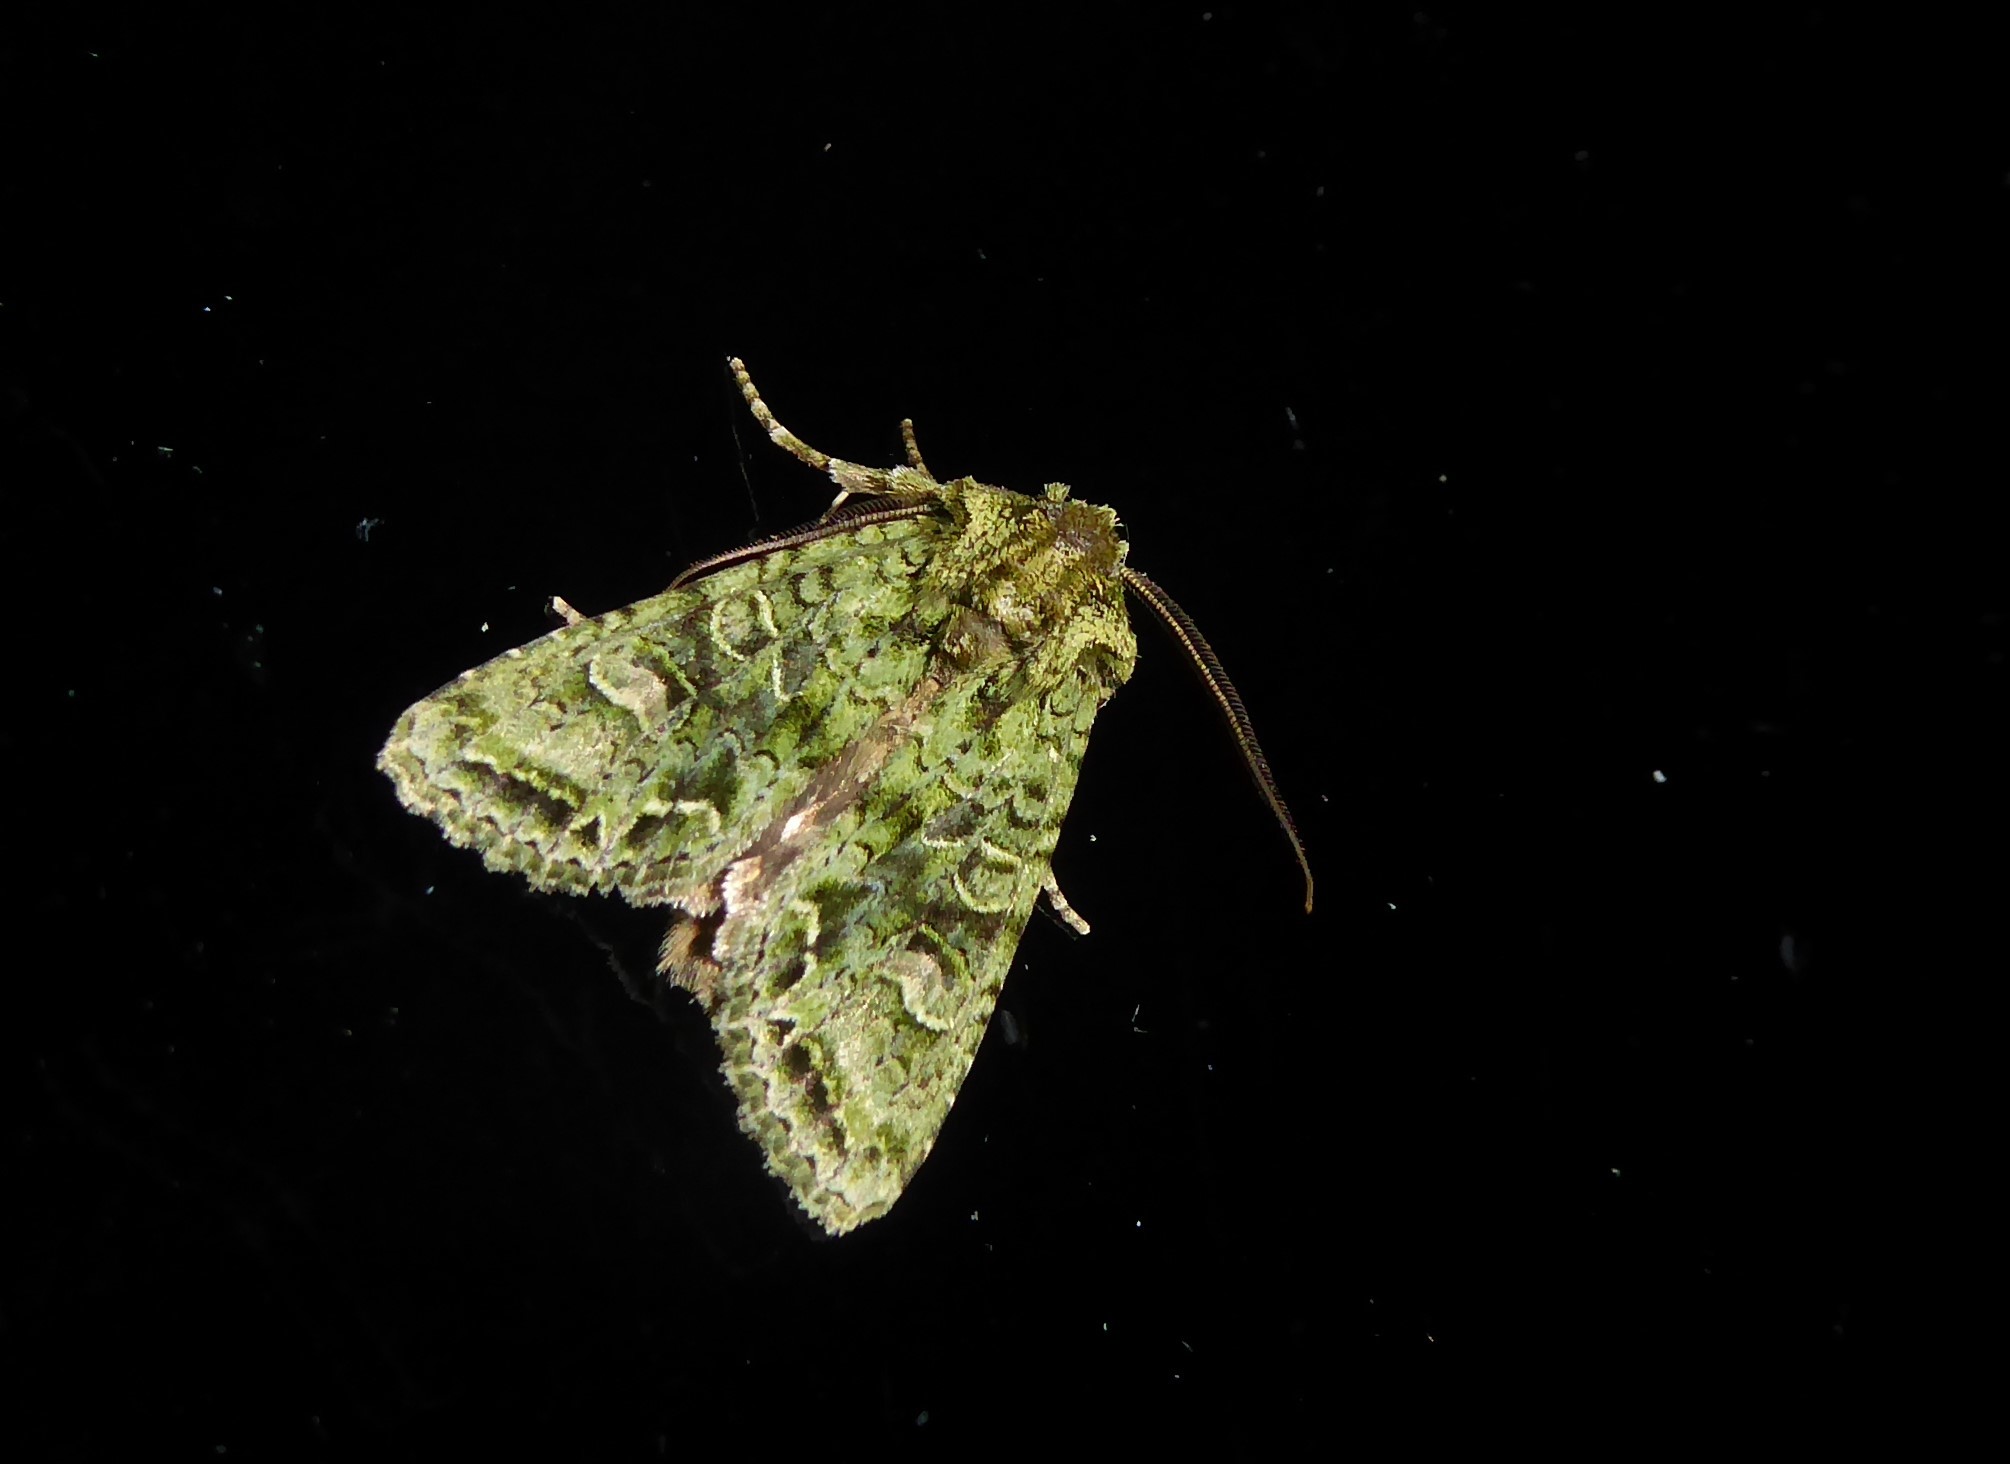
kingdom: Animalia
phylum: Arthropoda
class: Insecta
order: Lepidoptera
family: Noctuidae
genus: Ichneutica
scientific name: Ichneutica
